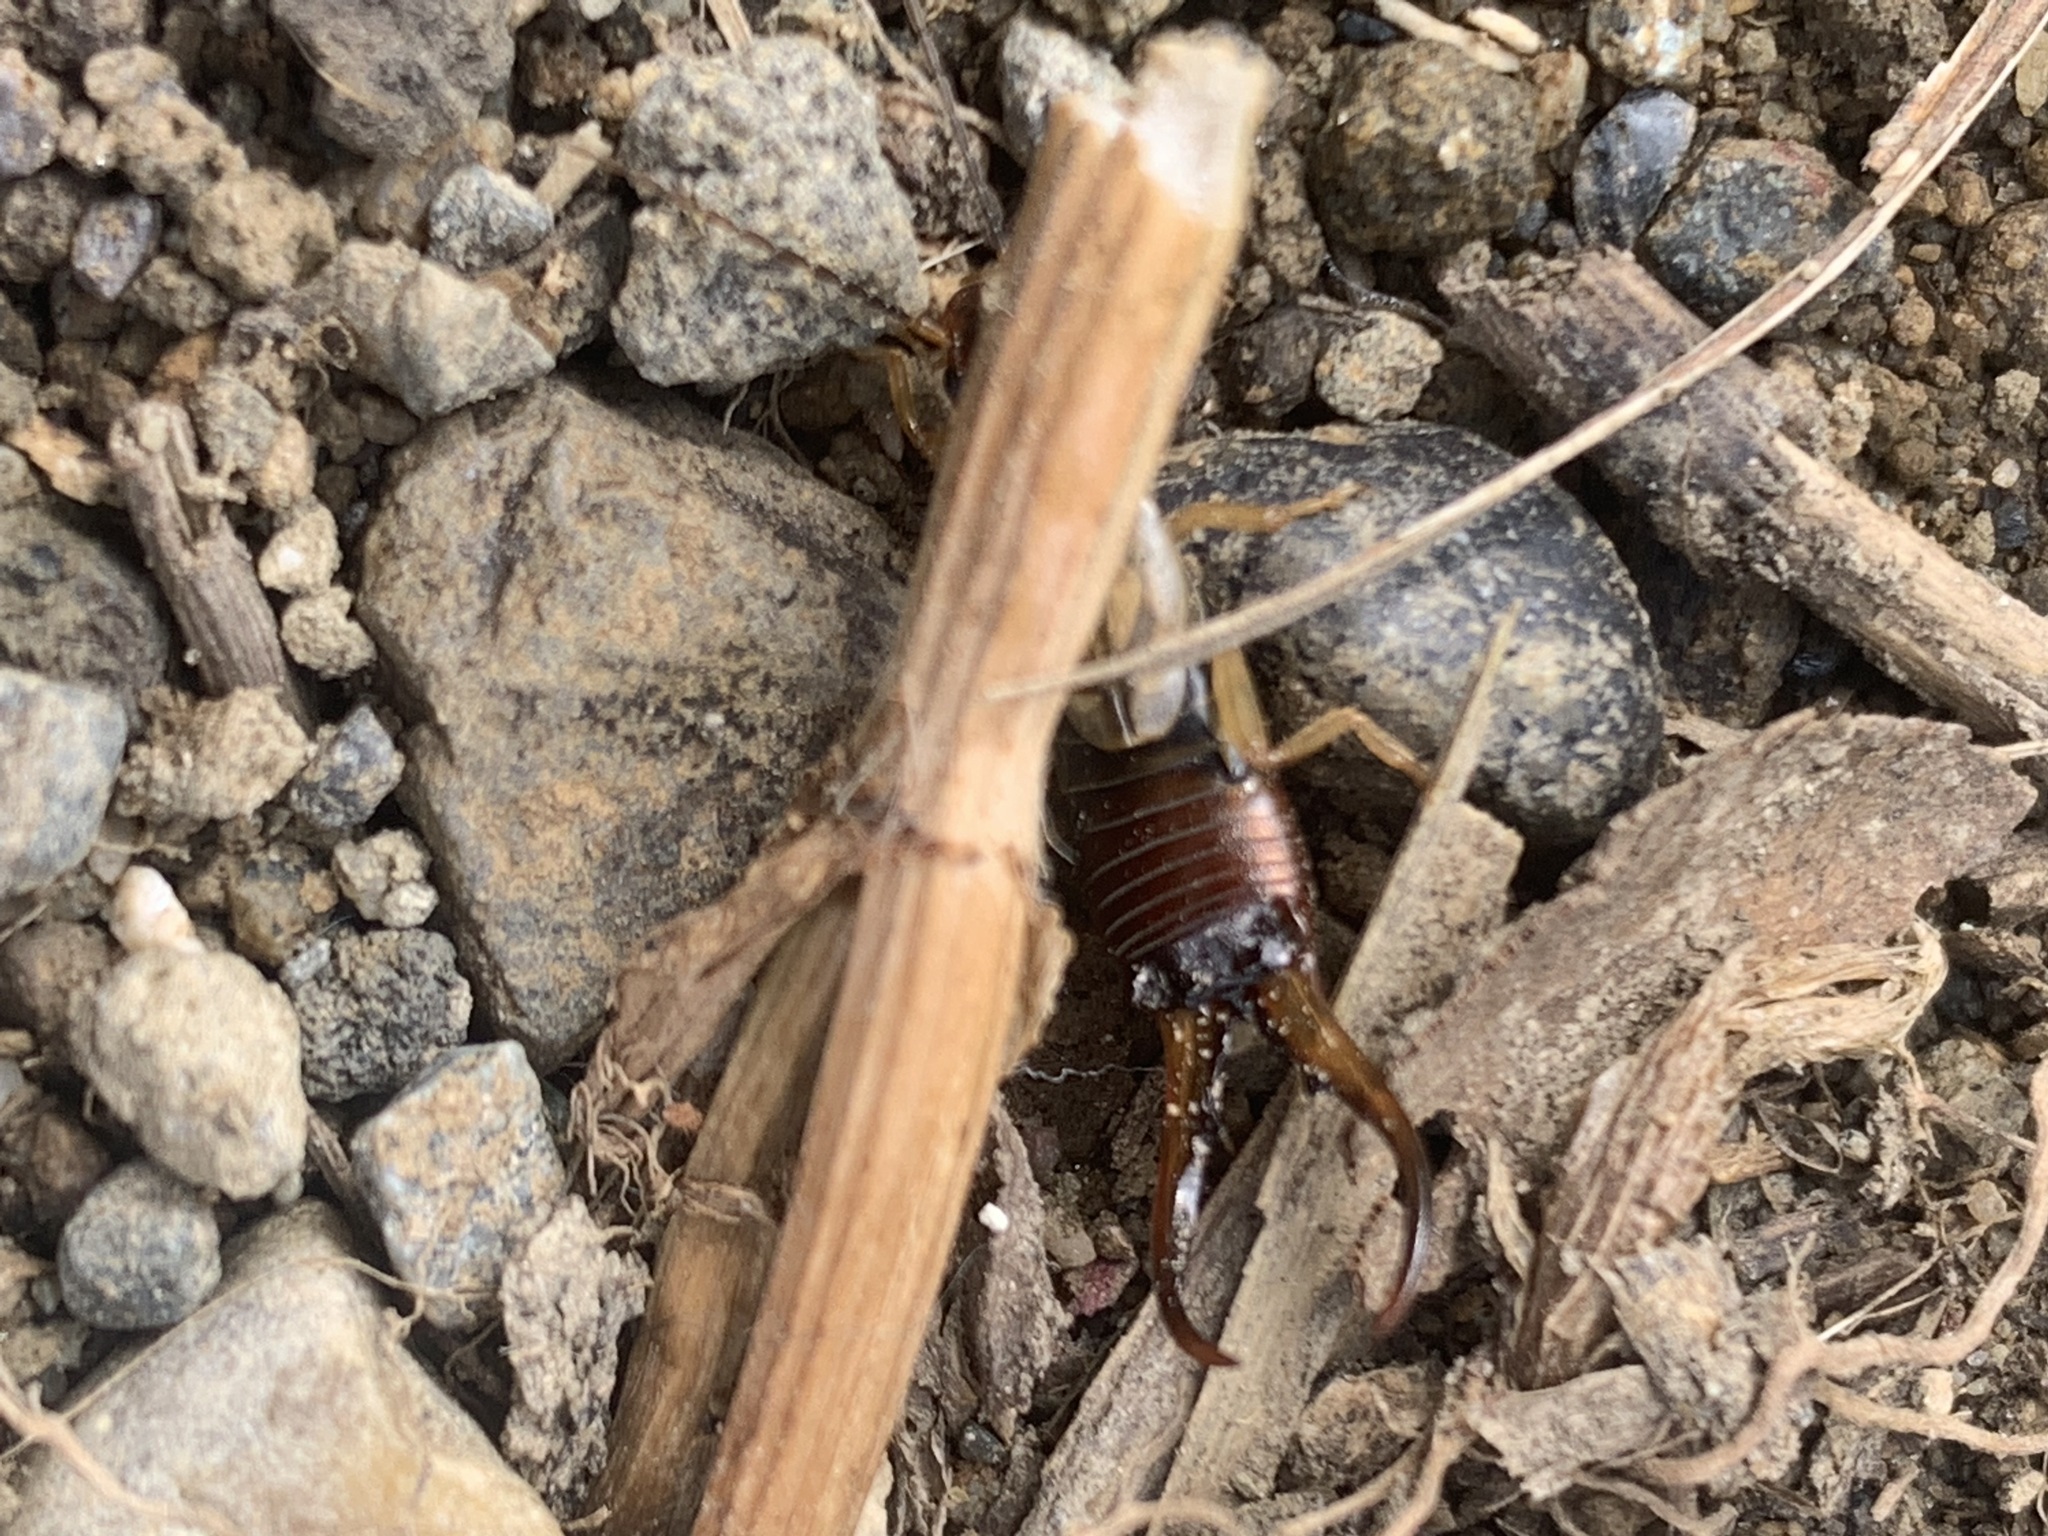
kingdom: Animalia
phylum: Arthropoda
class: Insecta
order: Dermaptera
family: Forficulidae
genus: Forficula
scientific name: Forficula
